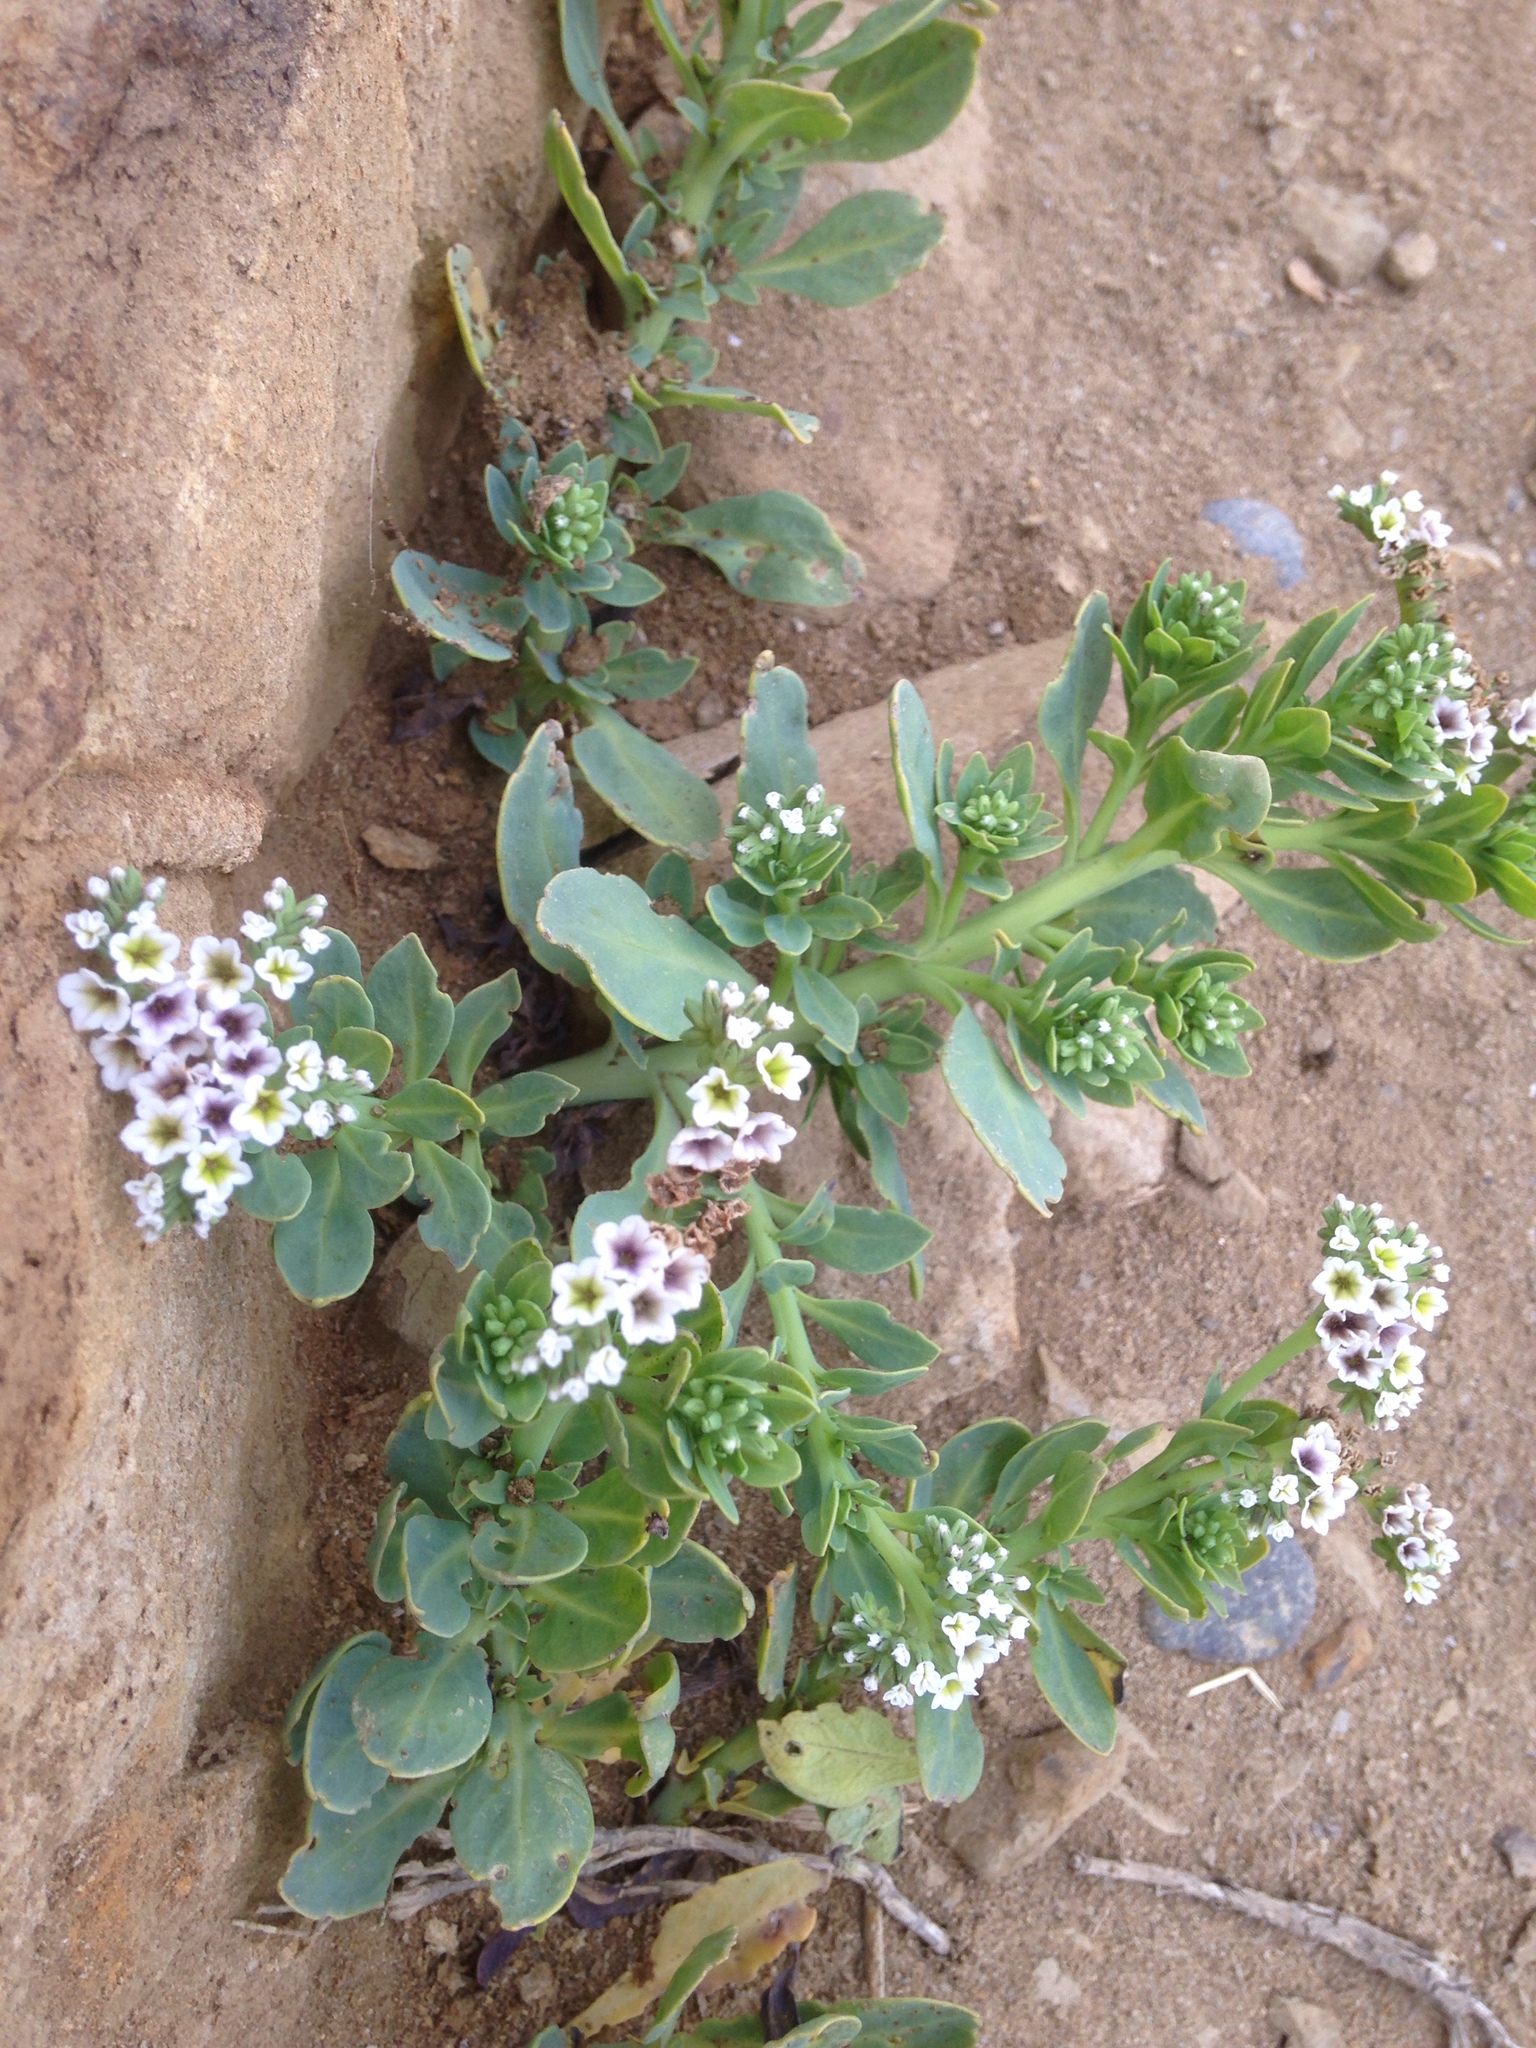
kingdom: Plantae
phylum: Tracheophyta
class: Magnoliopsida
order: Boraginales
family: Heliotropiaceae
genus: Heliotropium
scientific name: Heliotropium curassavicum
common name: Seaside heliotrope
